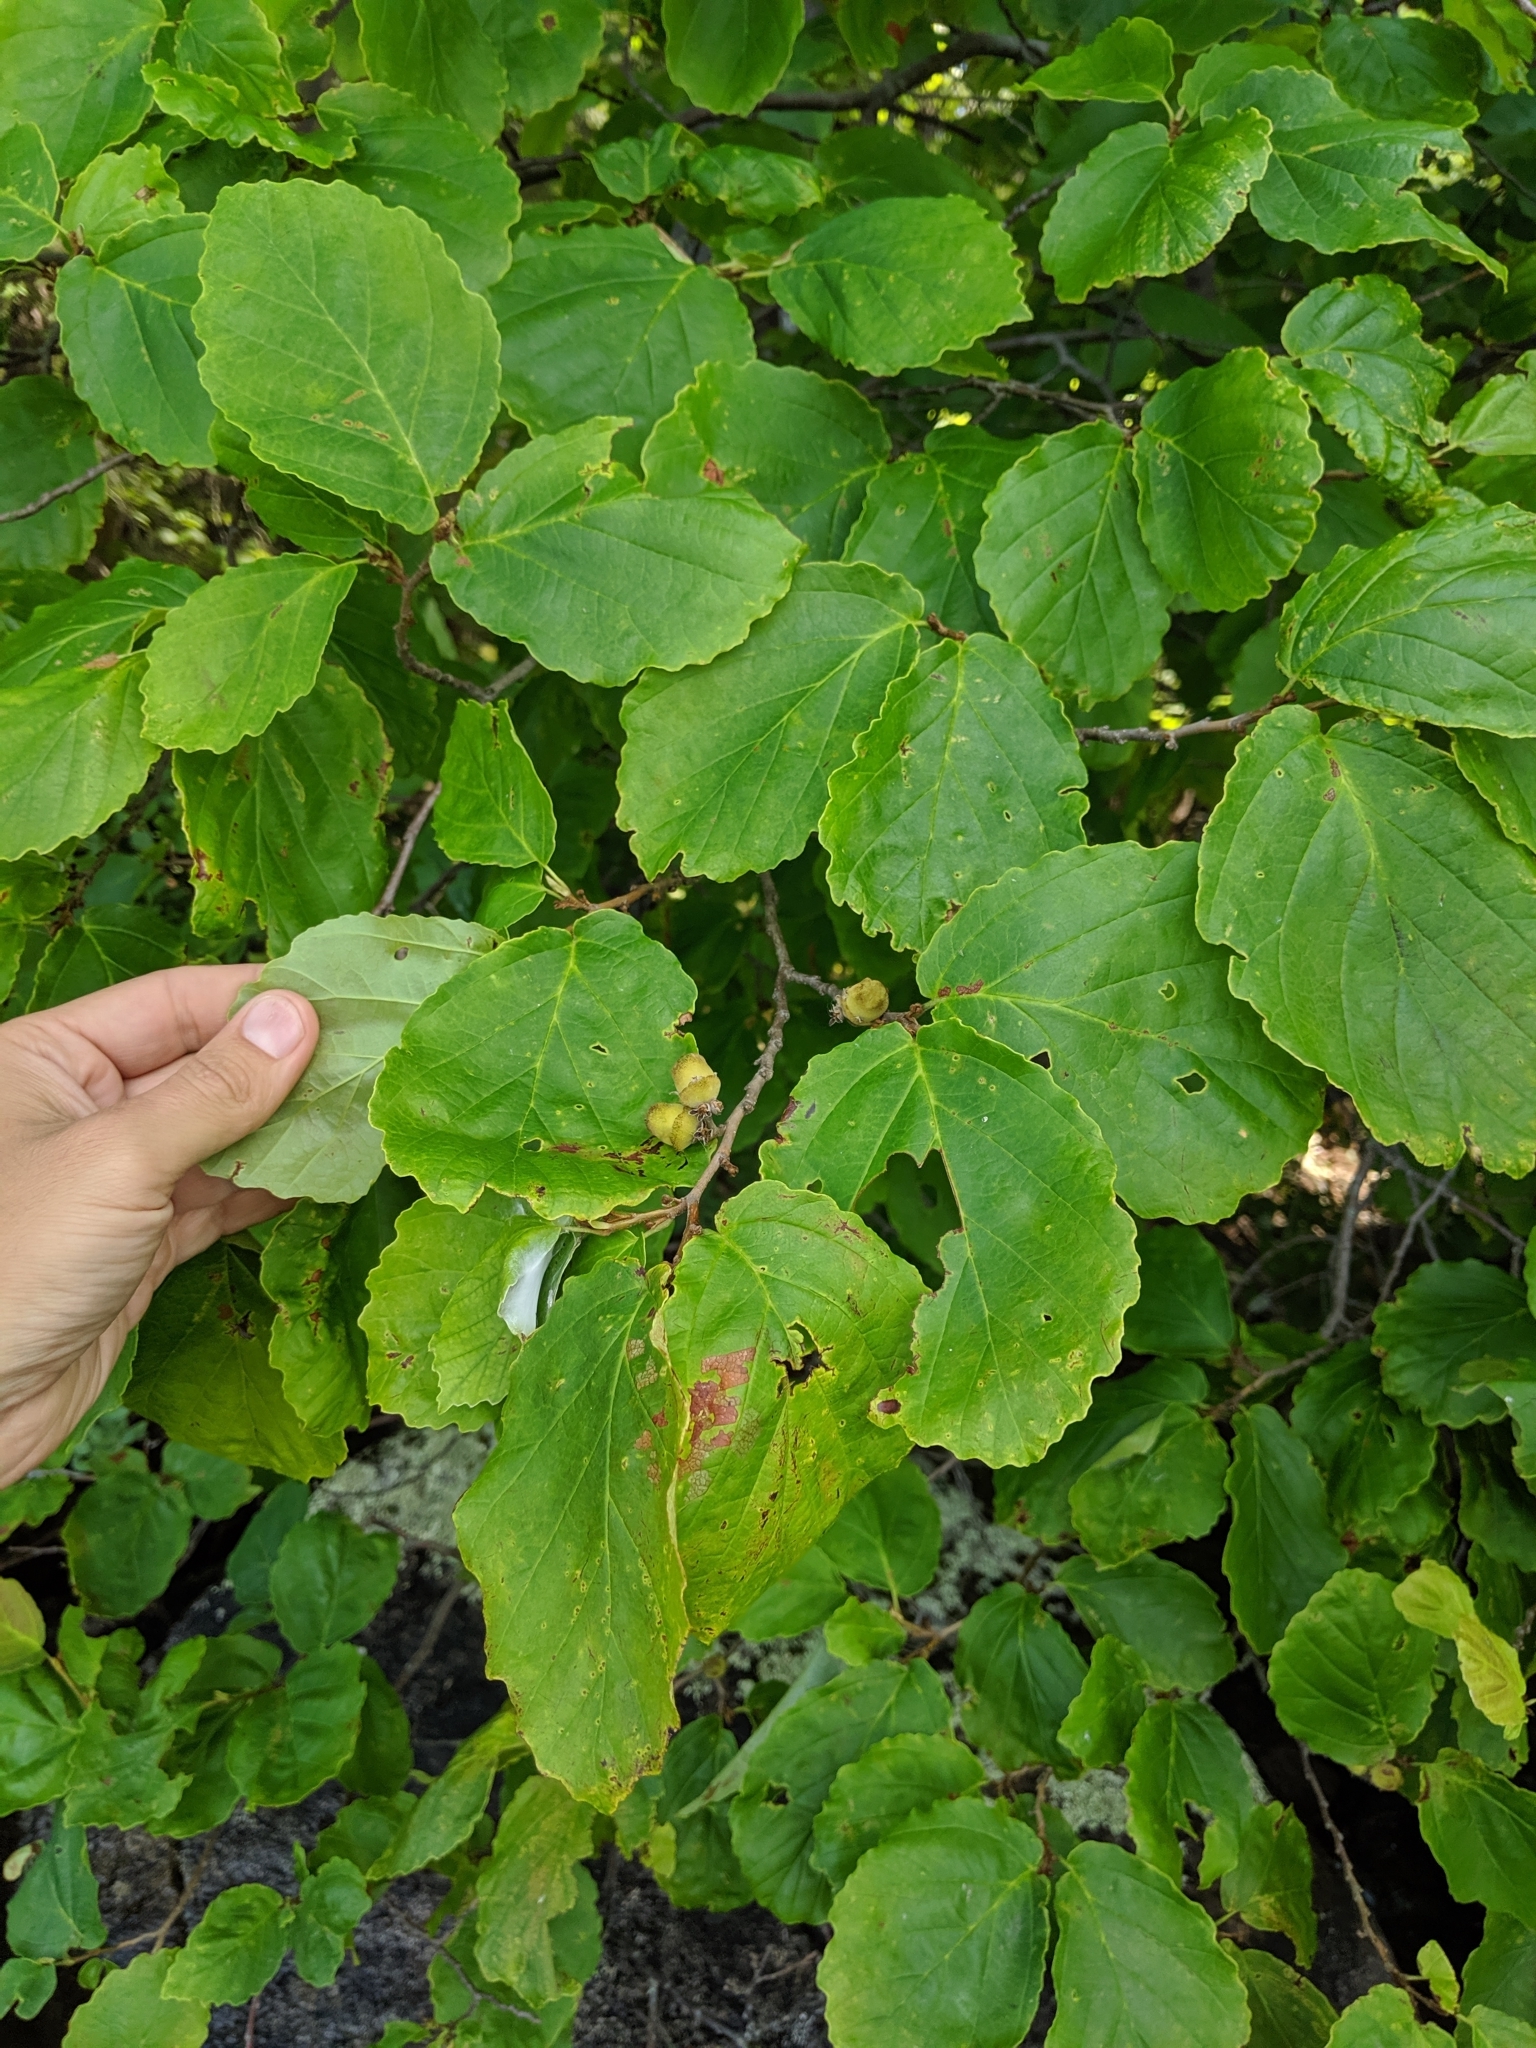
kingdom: Plantae
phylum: Tracheophyta
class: Magnoliopsida
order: Saxifragales
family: Hamamelidaceae
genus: Hamamelis
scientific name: Hamamelis virginiana
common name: Witch-hazel
